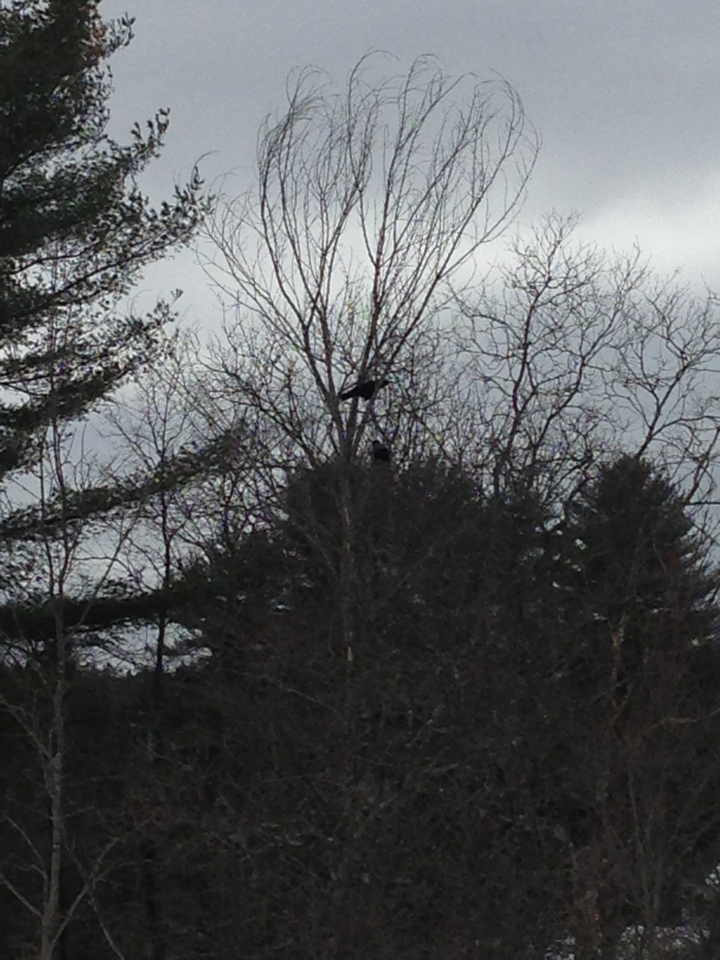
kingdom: Animalia
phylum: Chordata
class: Aves
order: Passeriformes
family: Corvidae
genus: Corvus
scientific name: Corvus corax
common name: Common raven
